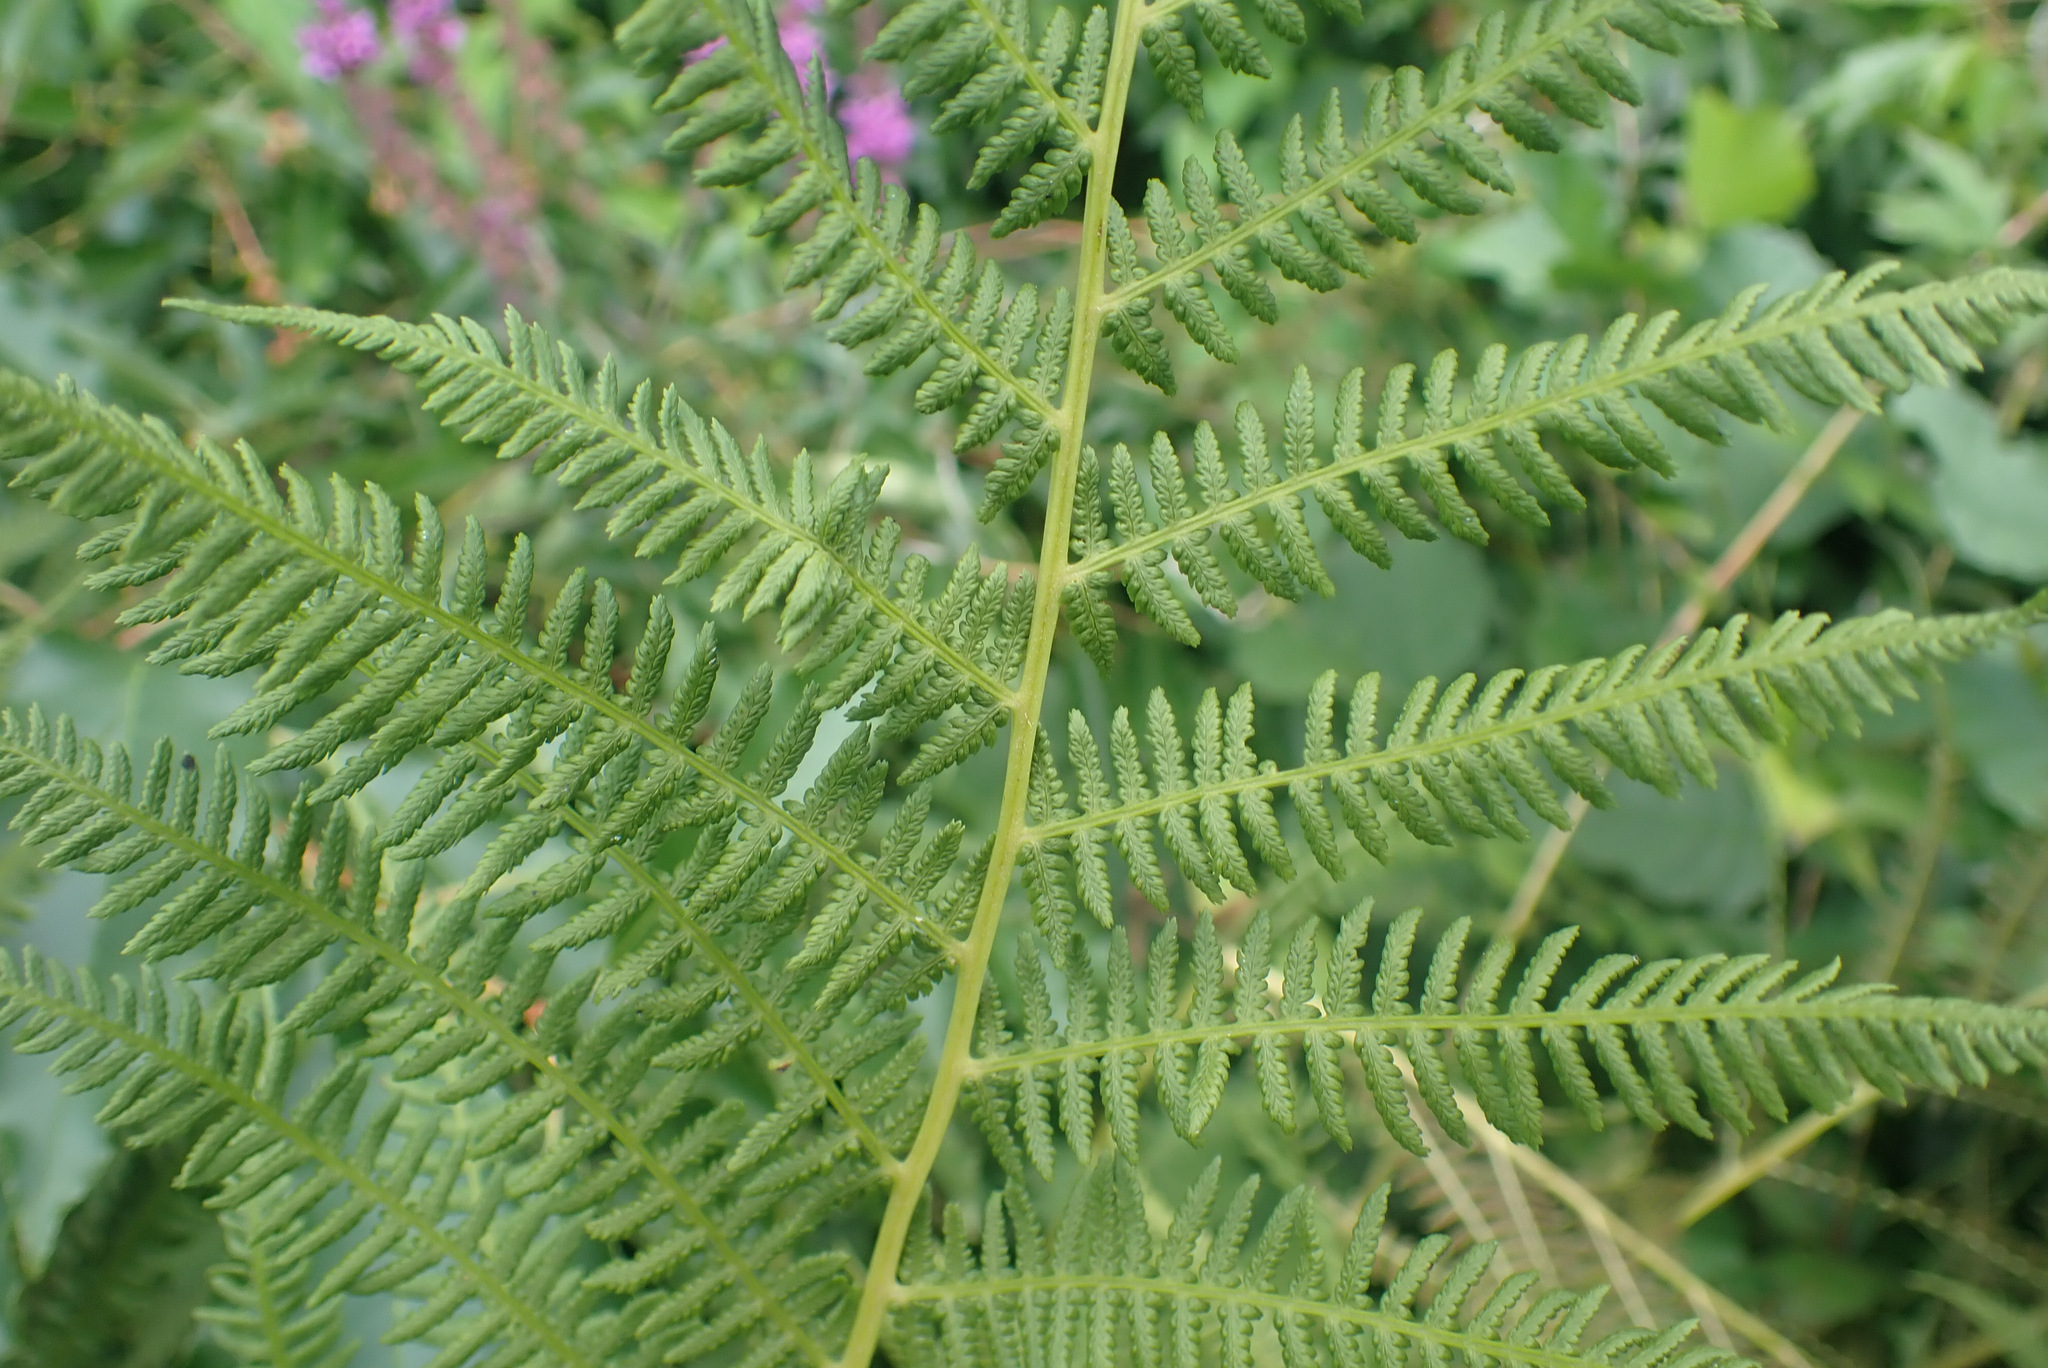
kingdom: Plantae
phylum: Tracheophyta
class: Polypodiopsida
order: Polypodiales
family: Athyriaceae
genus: Athyrium
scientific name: Athyrium filix-femina
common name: Lady fern
